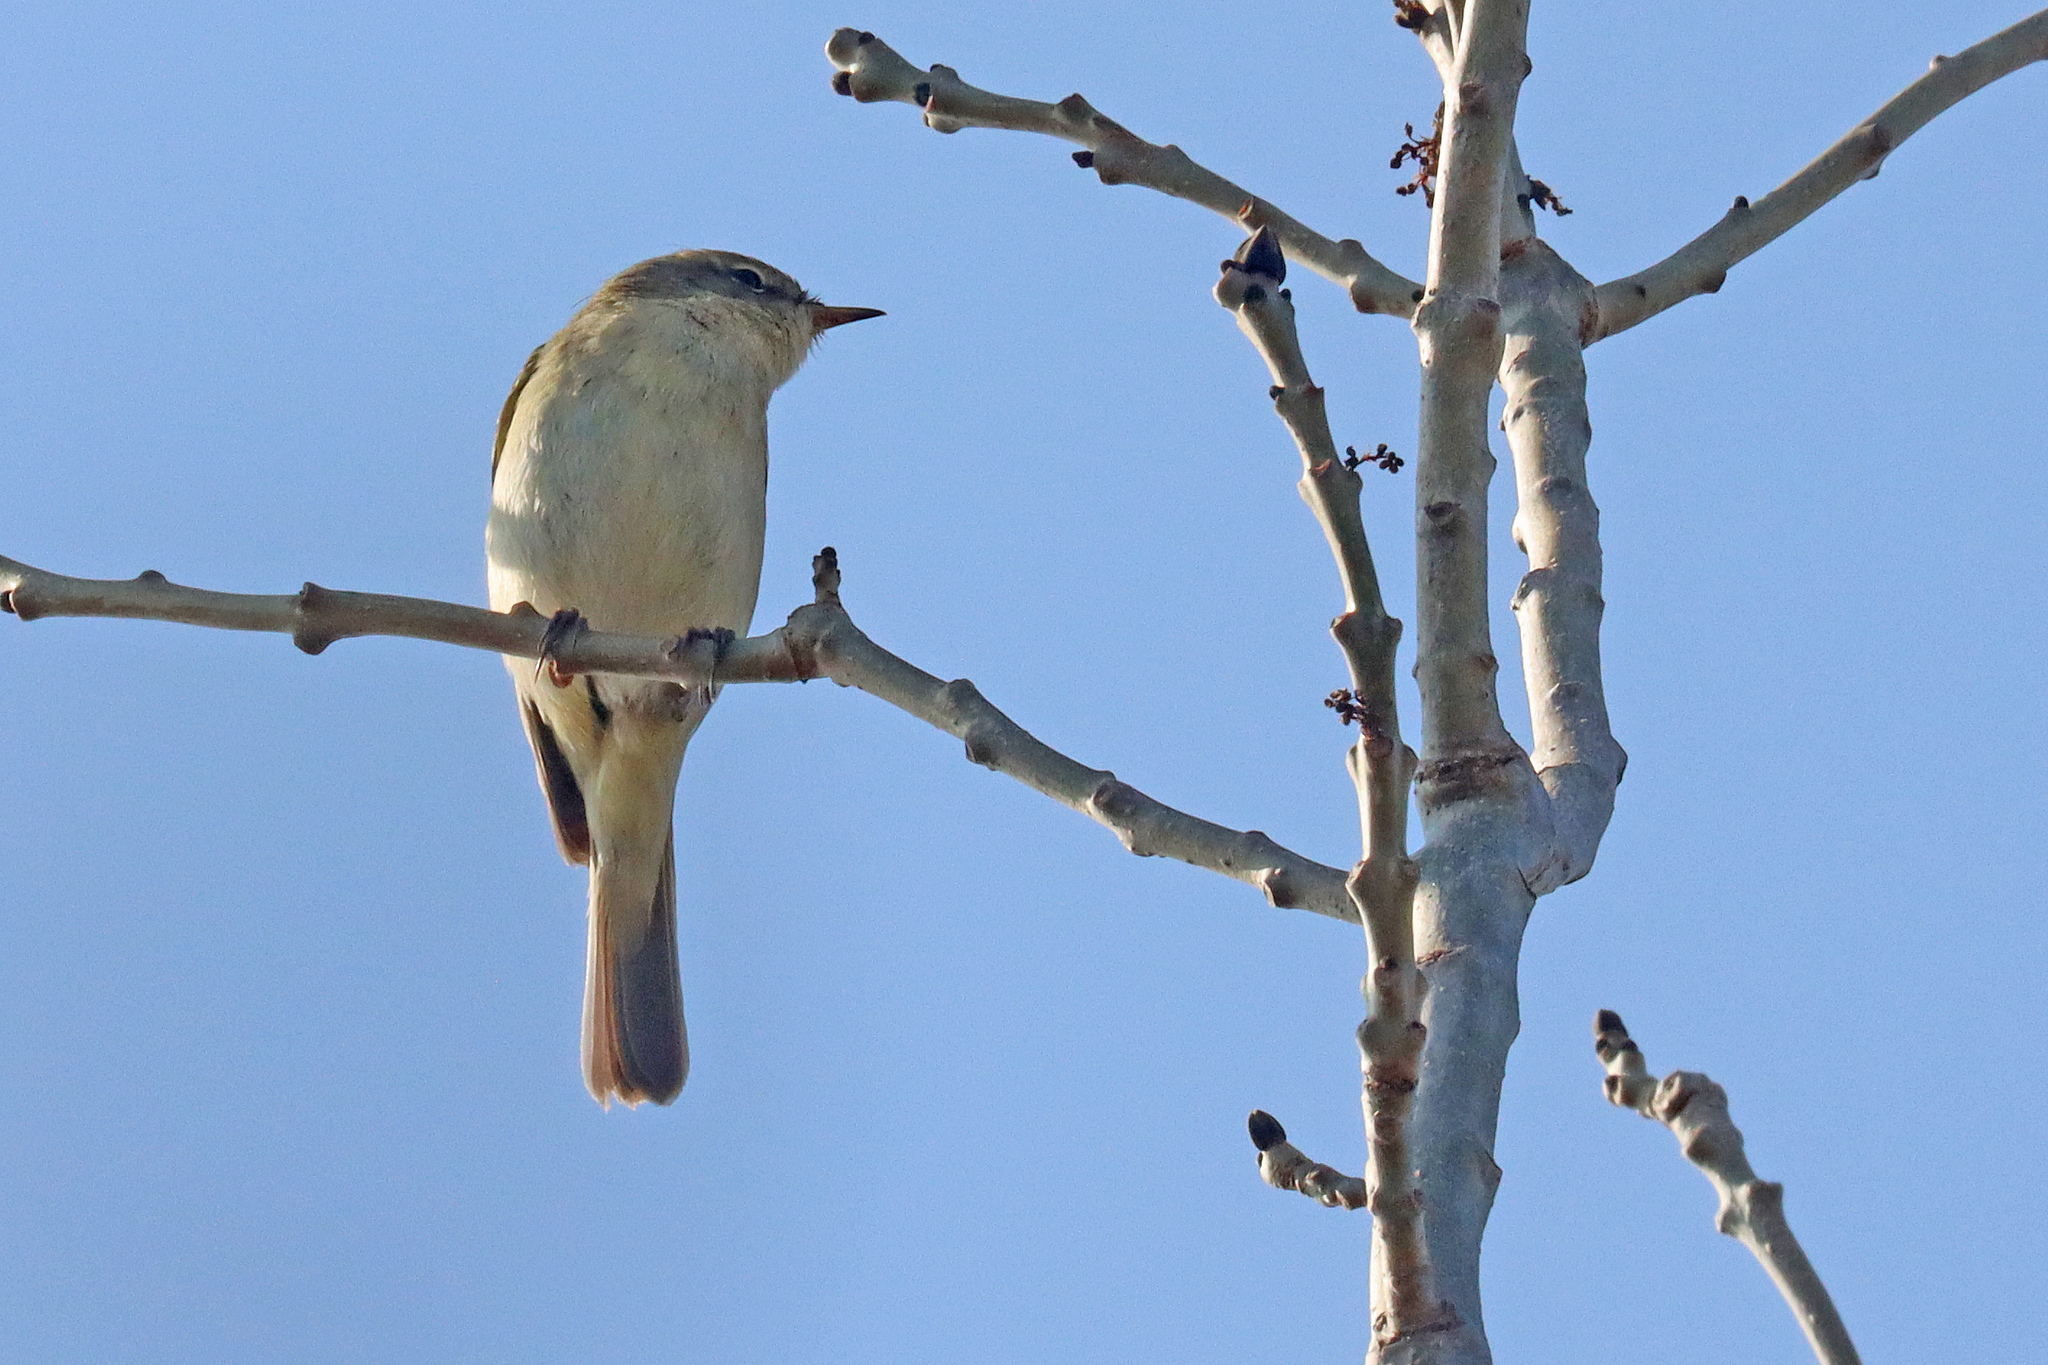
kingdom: Animalia
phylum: Chordata
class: Aves
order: Passeriformes
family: Phylloscopidae
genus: Phylloscopus
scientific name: Phylloscopus collybita
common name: Common chiffchaff
